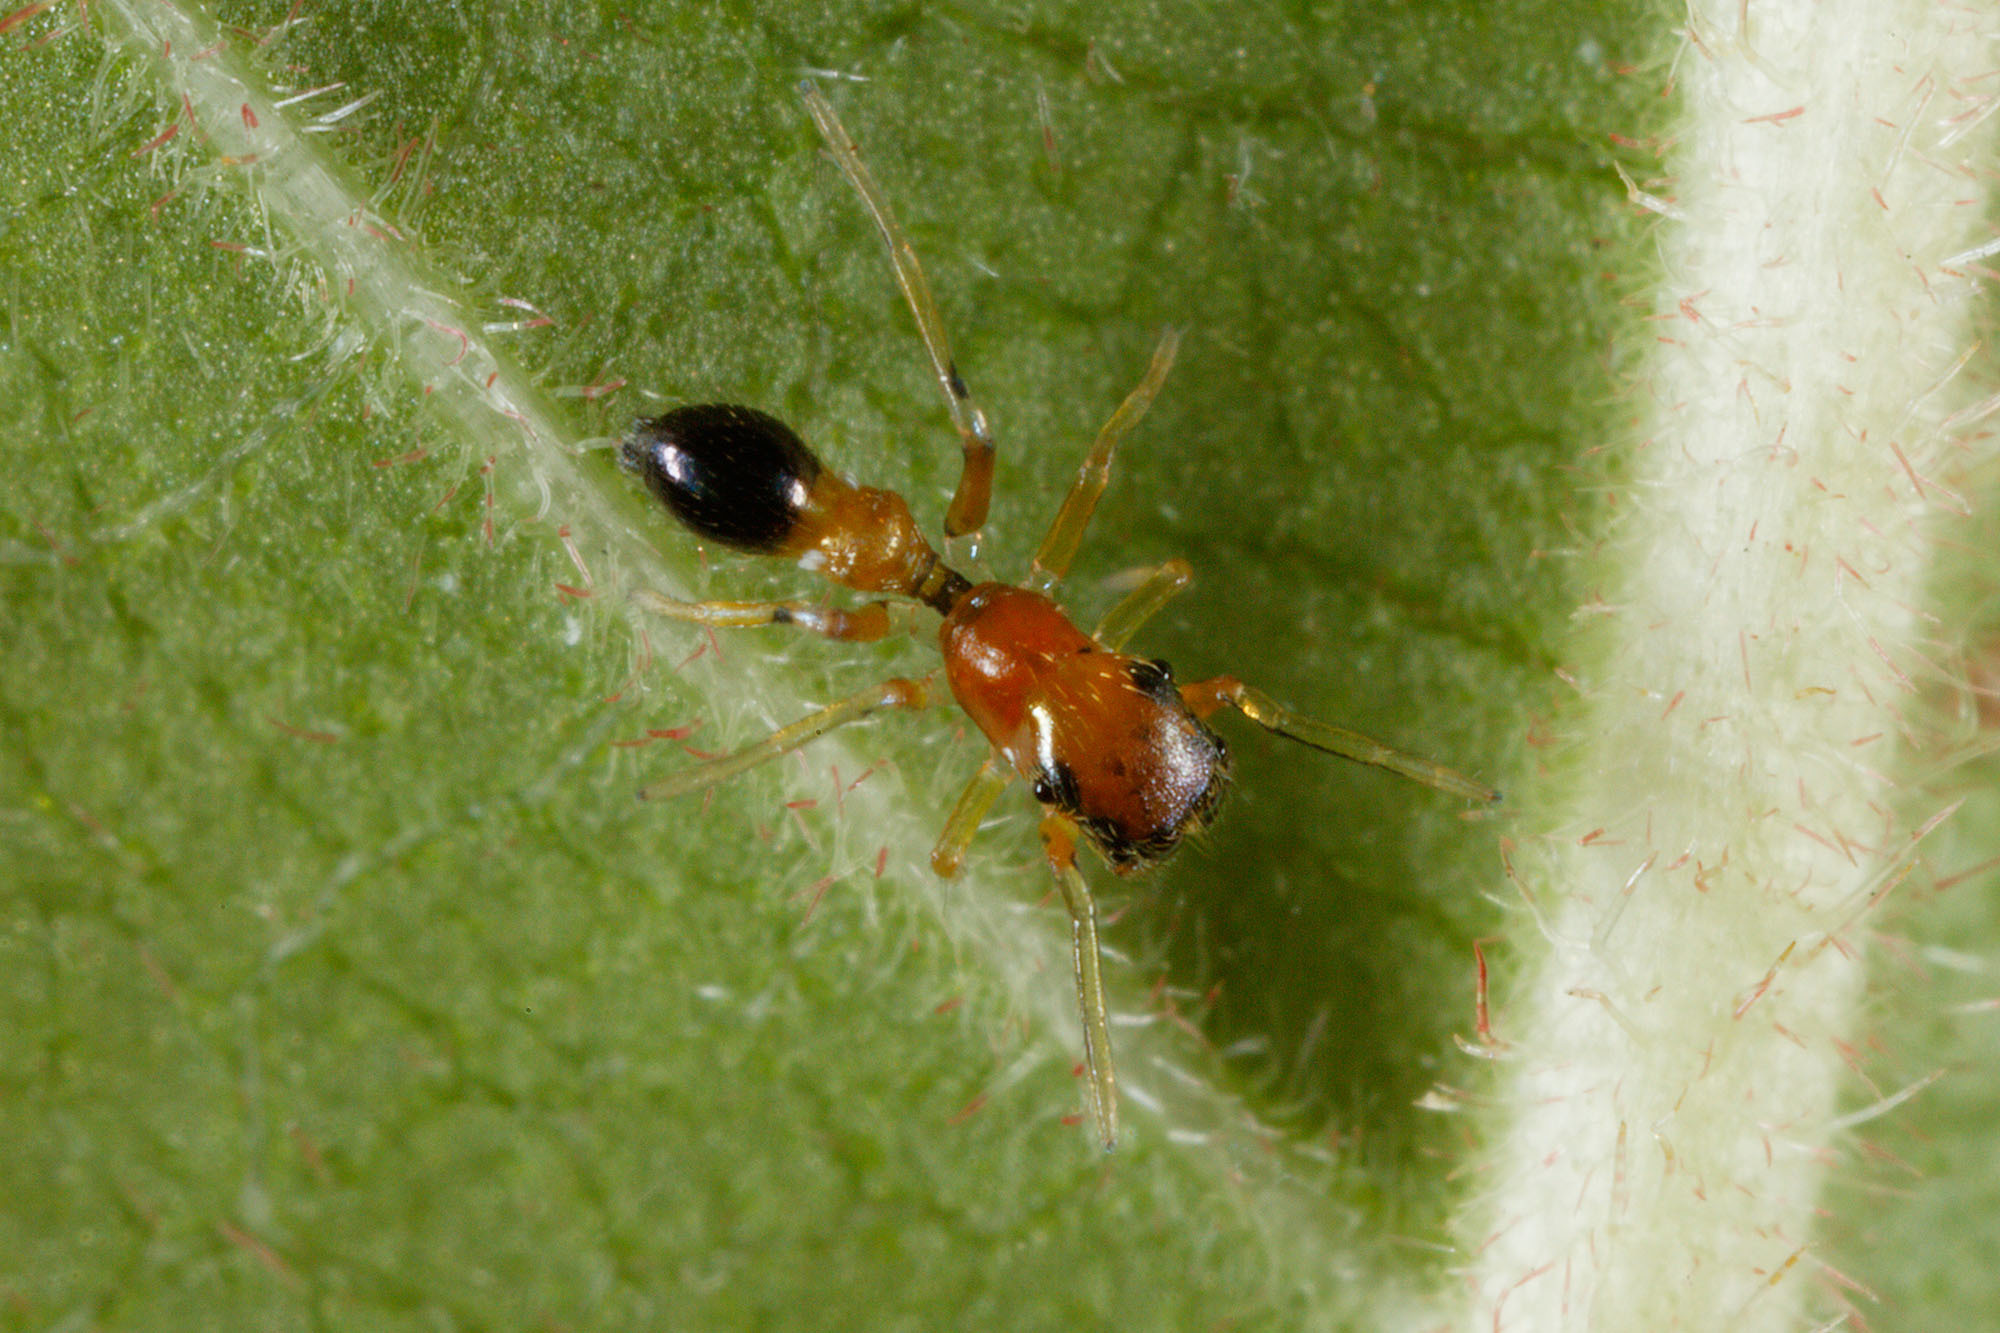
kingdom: Animalia
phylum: Arthropoda
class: Arachnida
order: Araneae
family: Salticidae
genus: Myrmarachne
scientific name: Myrmarachne helensmithae
